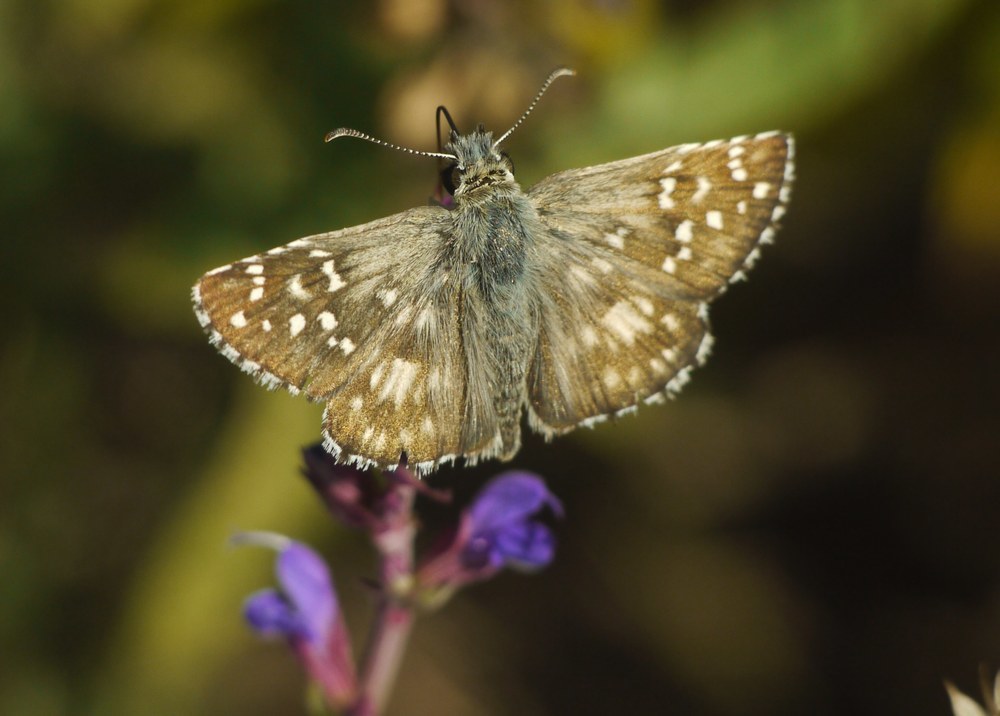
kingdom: Animalia
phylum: Arthropoda
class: Insecta
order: Lepidoptera
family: Hesperiidae
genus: Pyrgus
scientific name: Pyrgus armoricanus
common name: Oberthür's grizzled skipper
